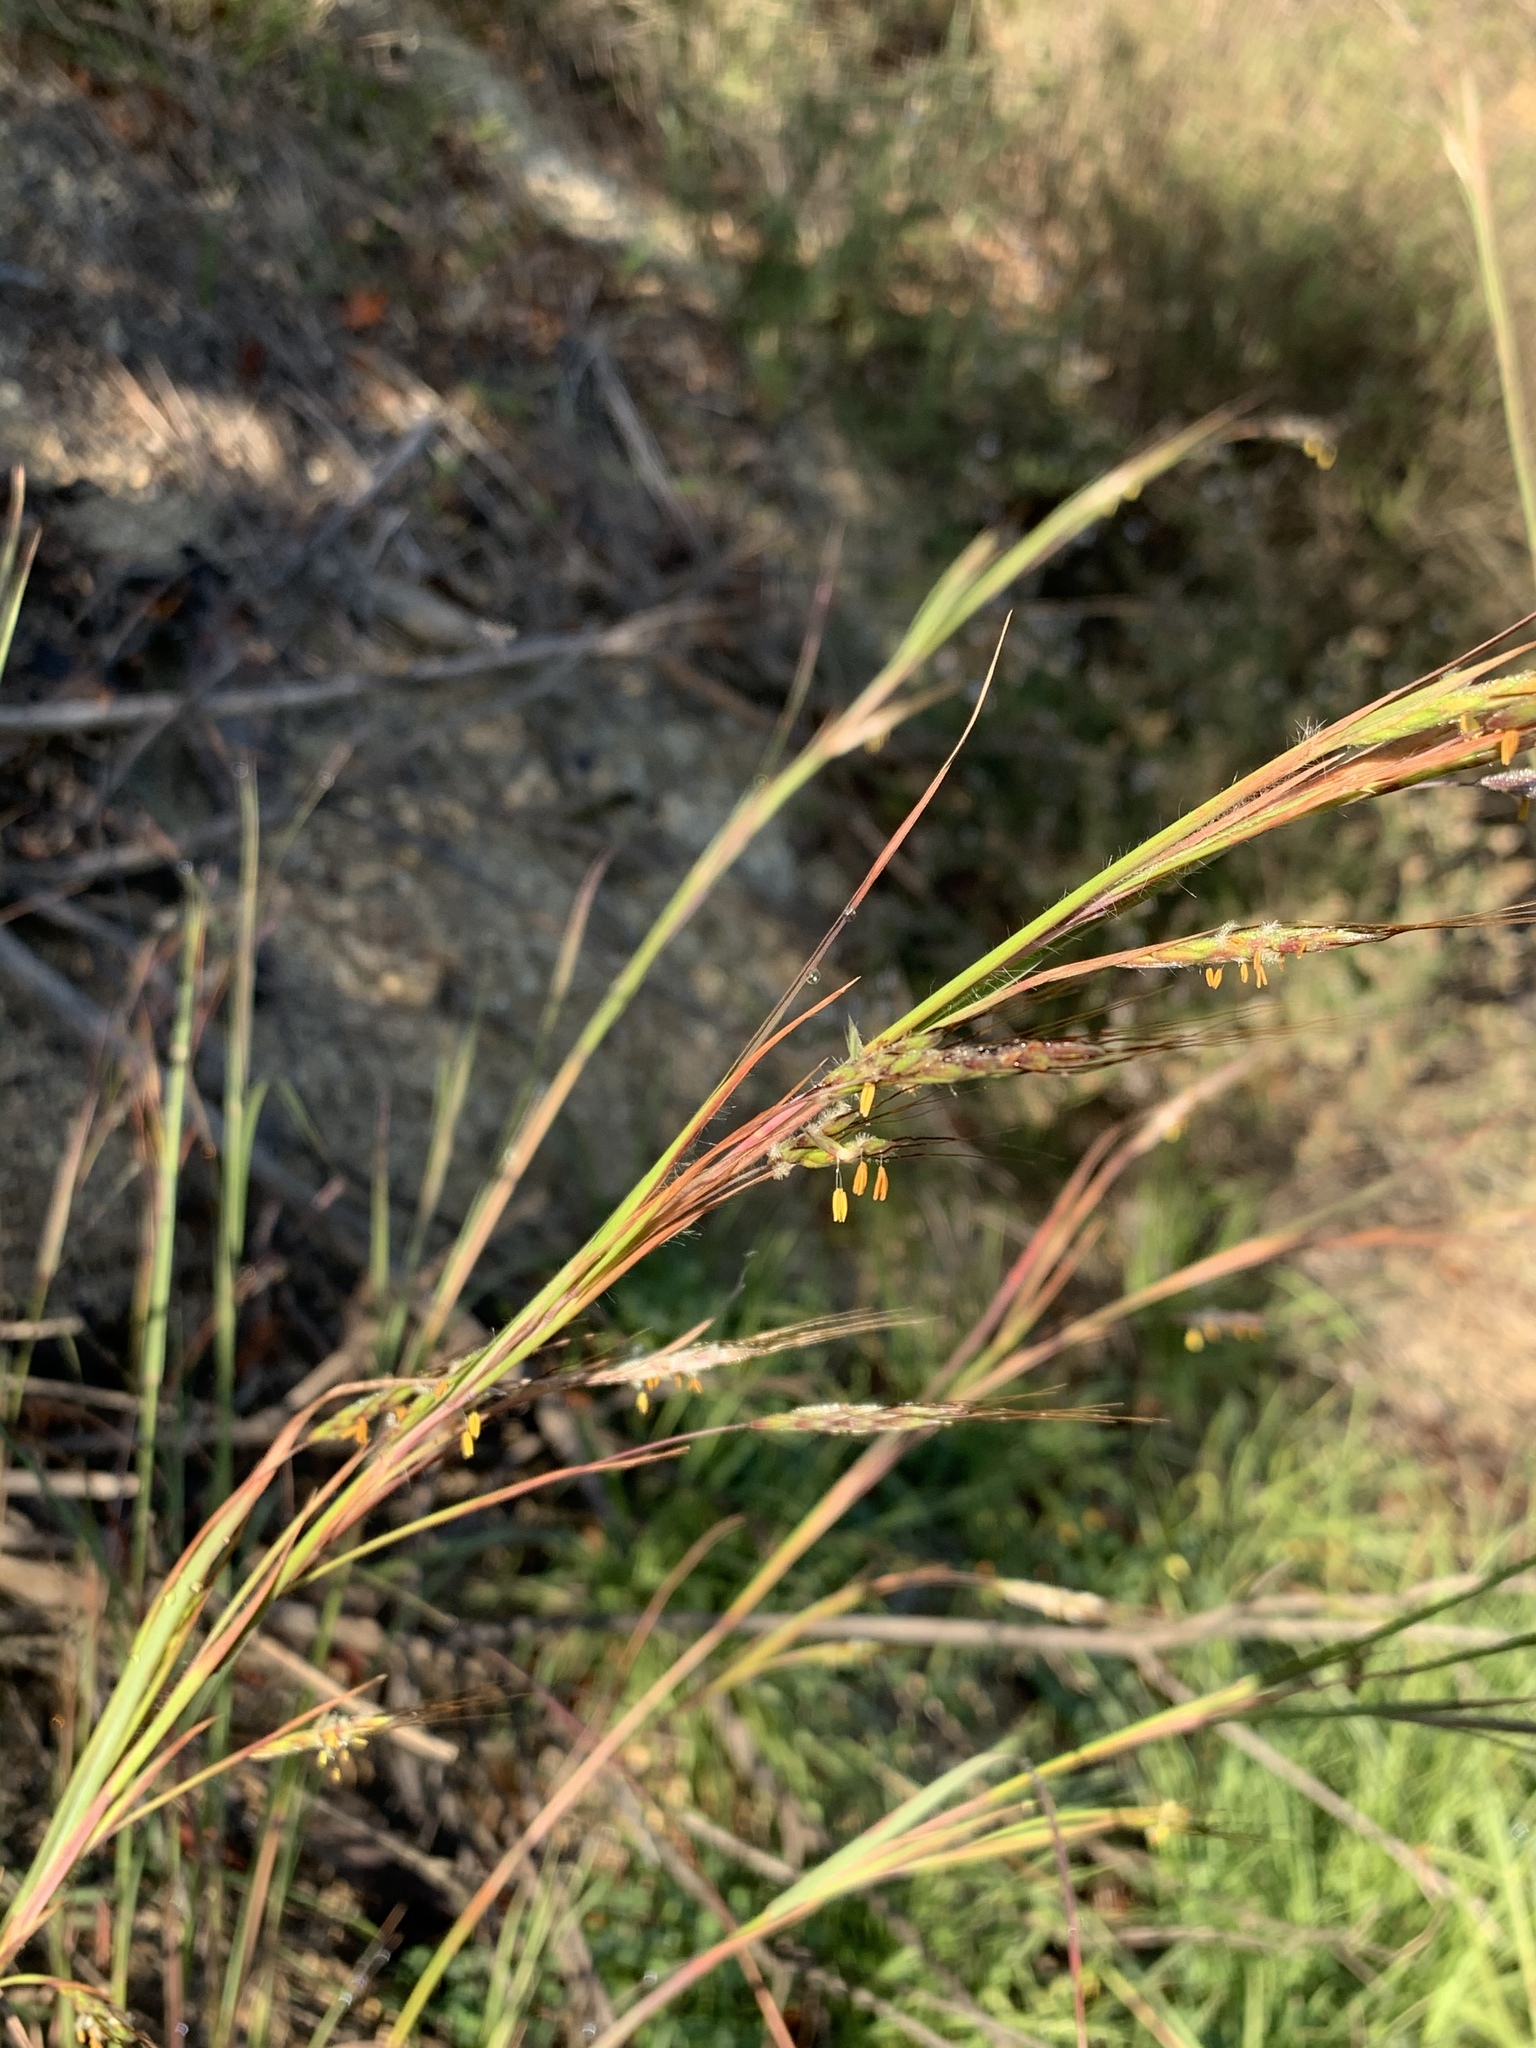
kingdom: Plantae
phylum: Tracheophyta
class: Liliopsida
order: Poales
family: Poaceae
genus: Hyparrhenia
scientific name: Hyparrhenia hirta
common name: Thatching grass
